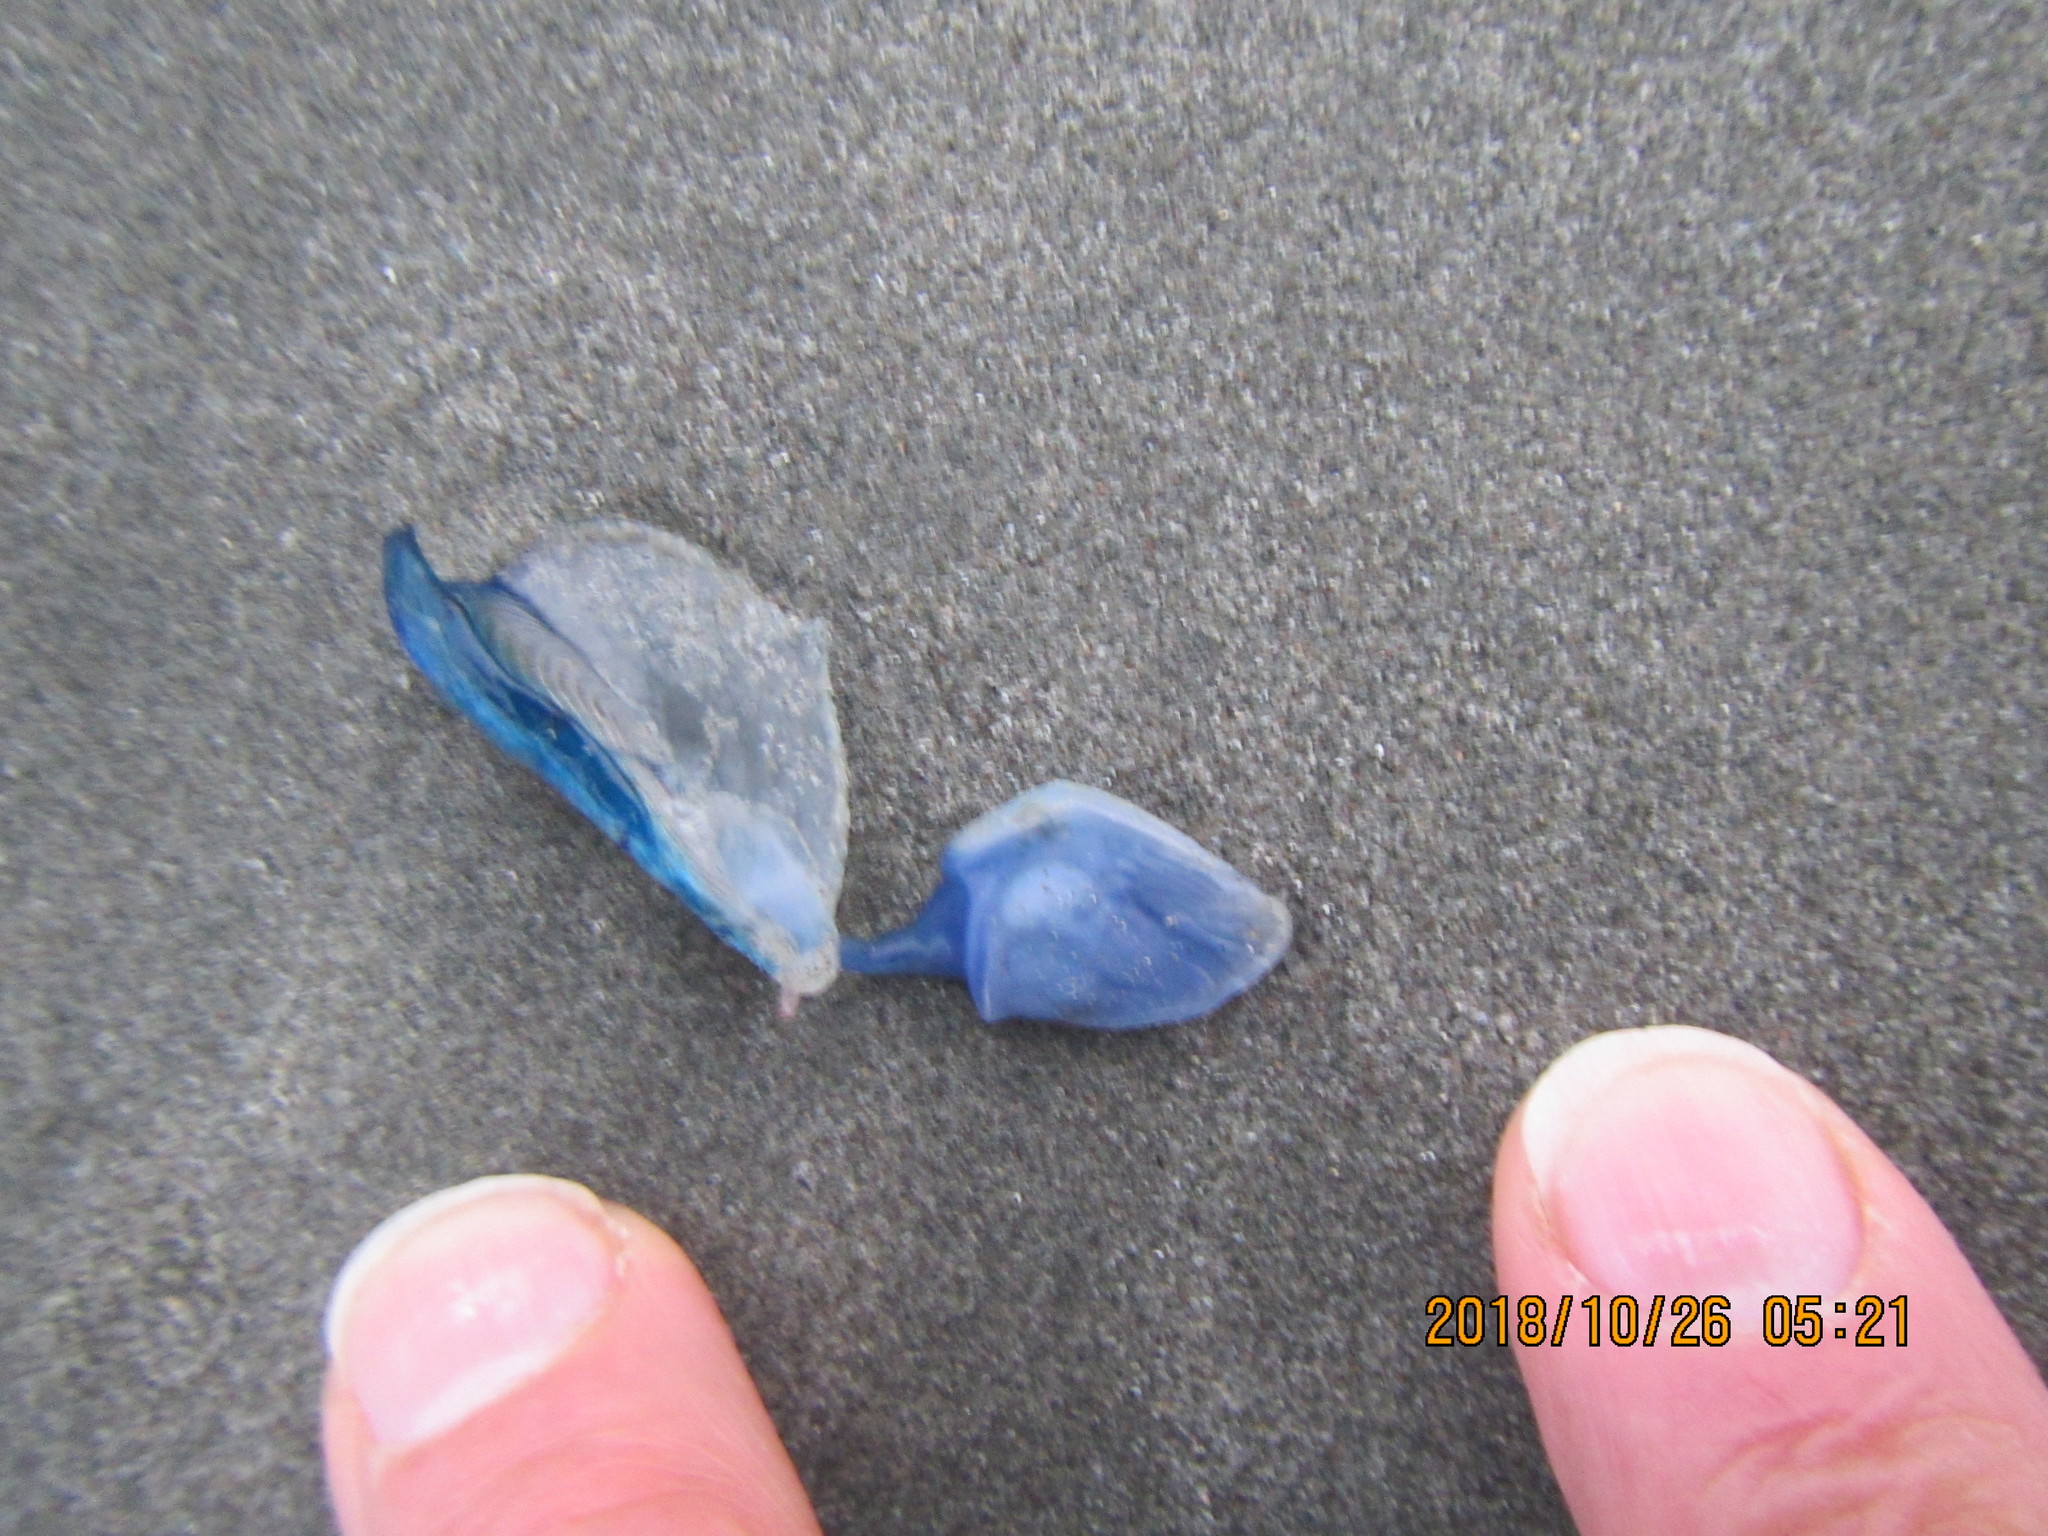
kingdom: Animalia
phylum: Arthropoda
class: Maxillopoda
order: Pedunculata
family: Lepadidae
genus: Dosima
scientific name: Dosima fascicularis
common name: Buoy barnacle
